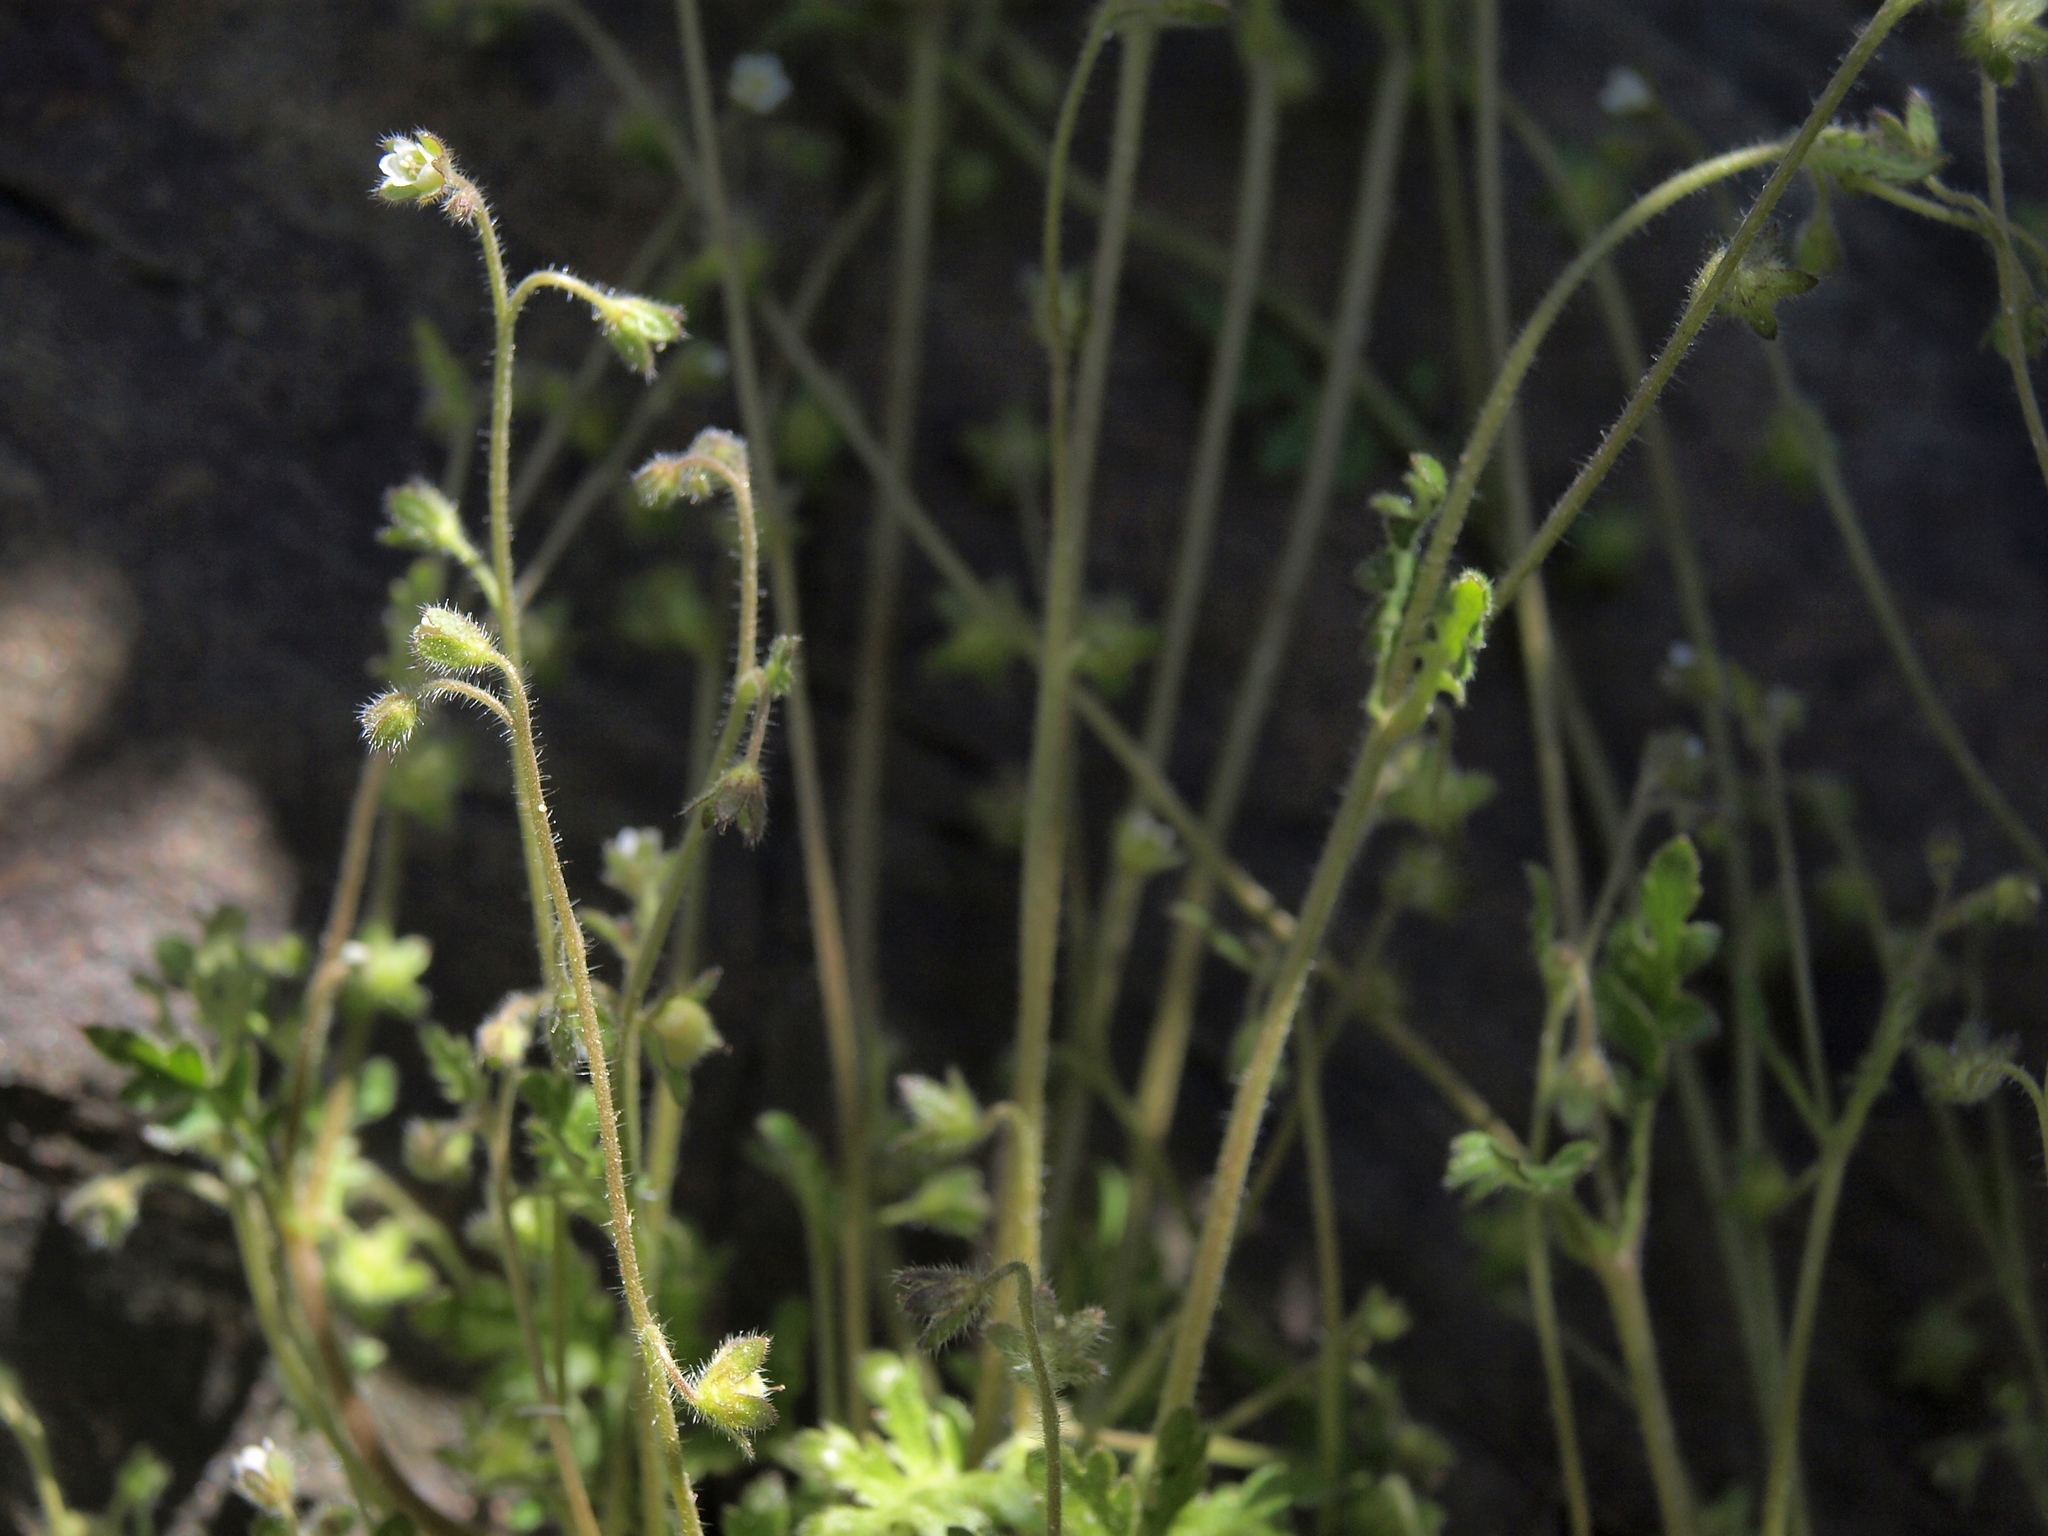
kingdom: Plantae
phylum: Tracheophyta
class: Magnoliopsida
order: Boraginales
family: Hydrophyllaceae
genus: Eucrypta
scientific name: Eucrypta chrysanthemifolia
